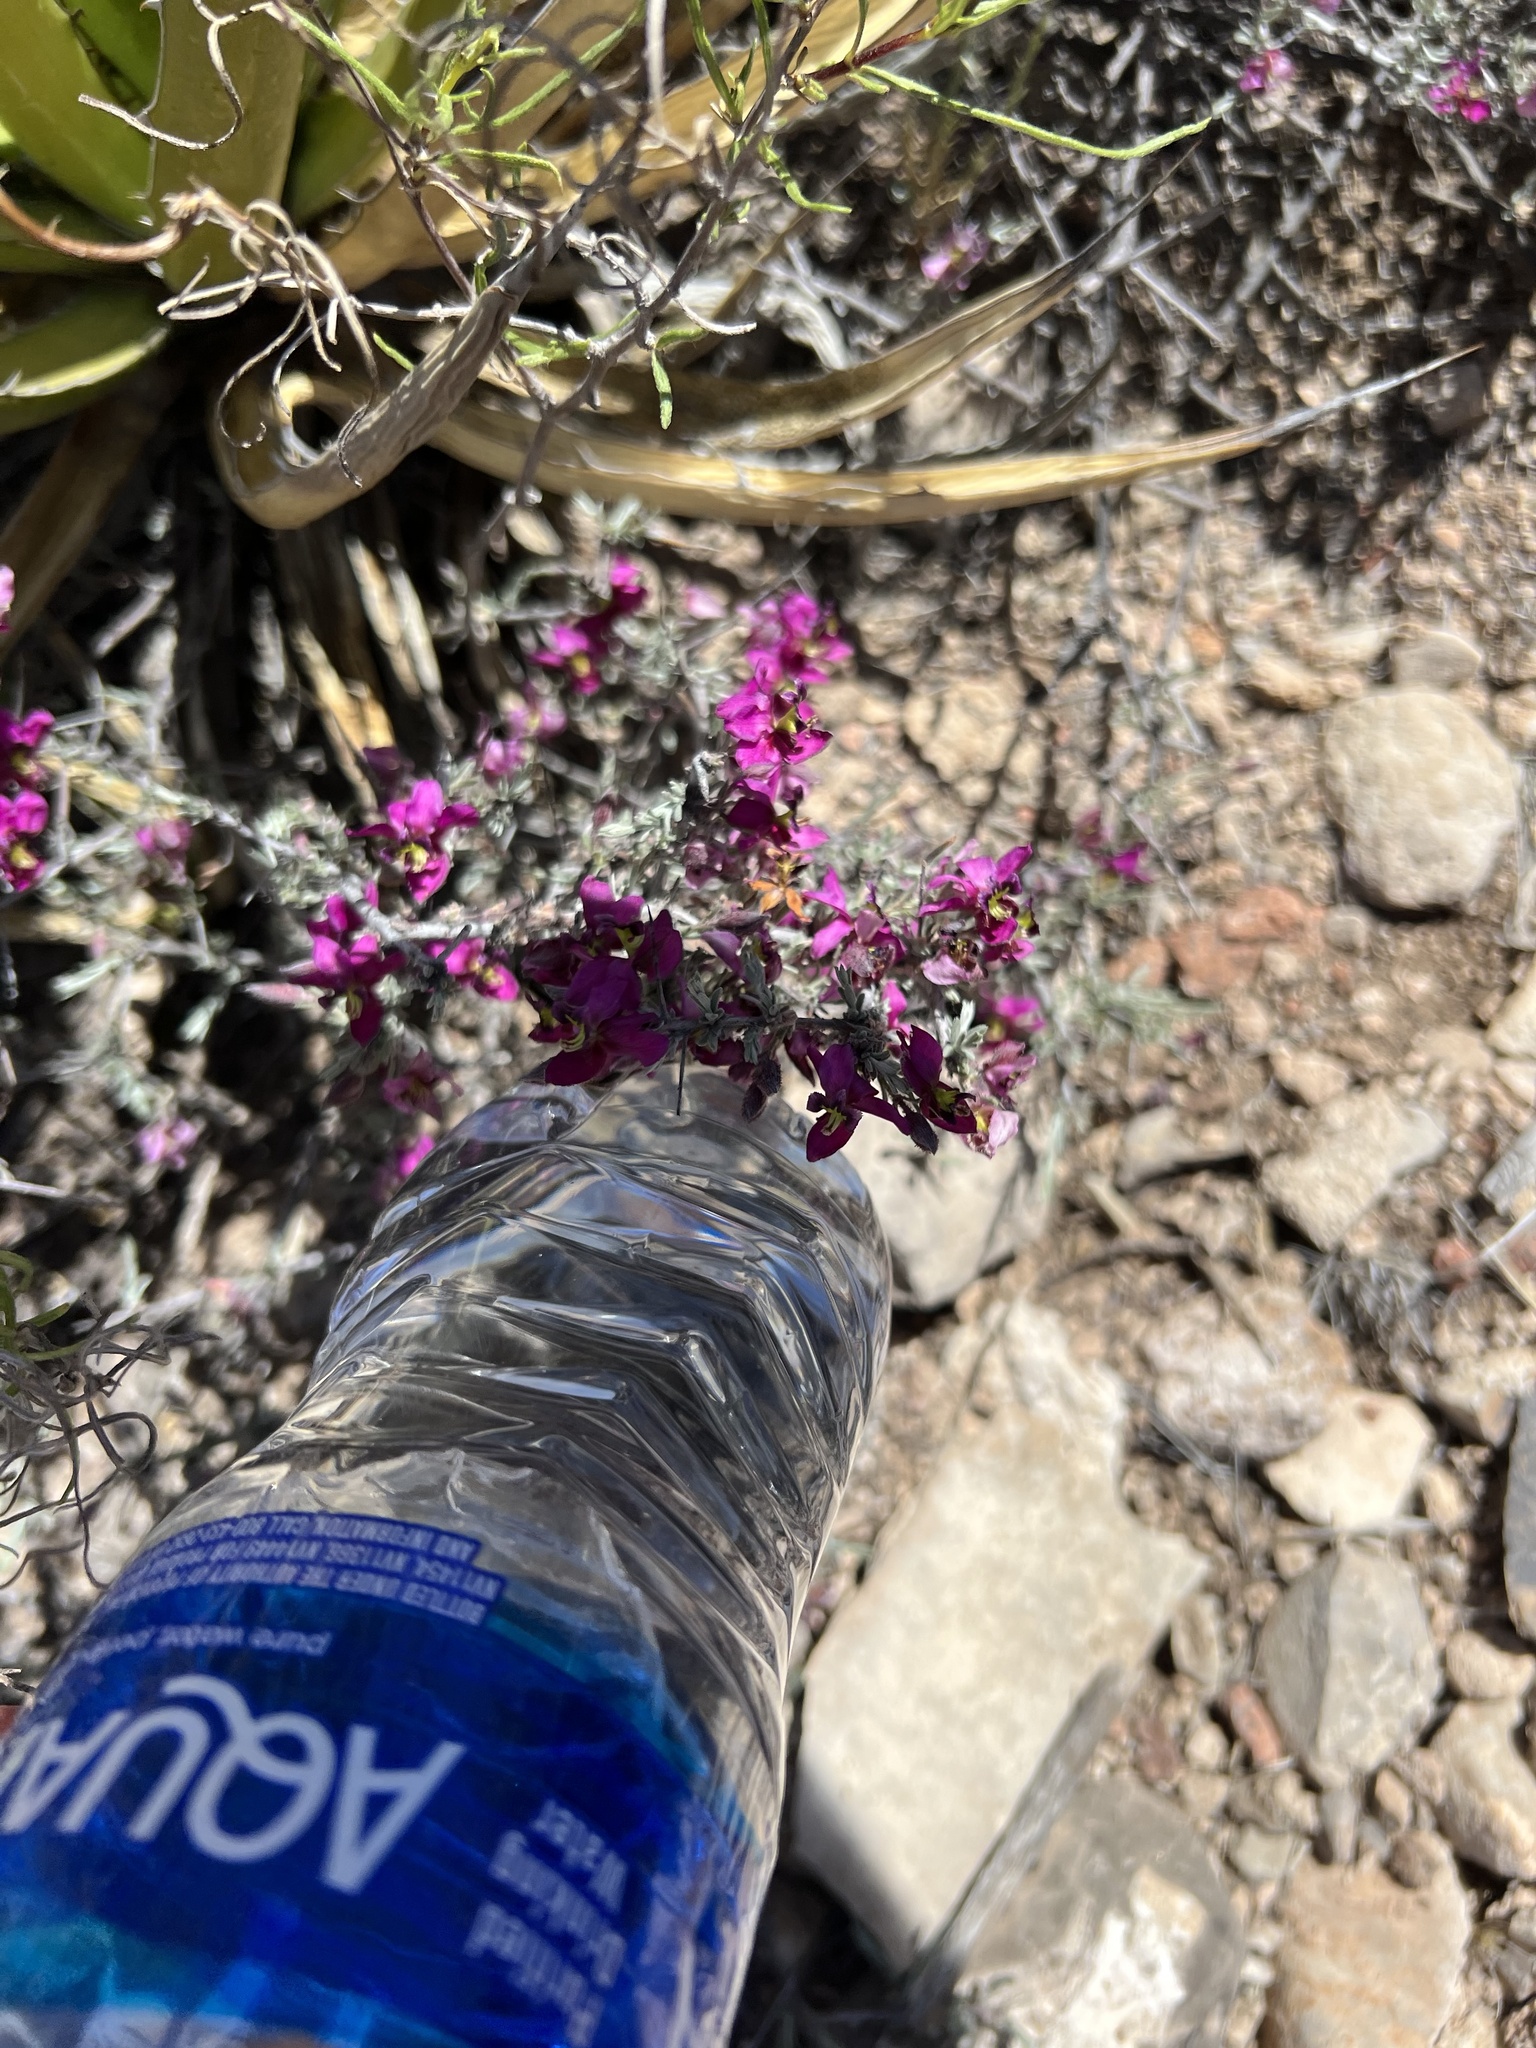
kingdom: Plantae
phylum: Tracheophyta
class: Magnoliopsida
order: Zygophyllales
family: Krameriaceae
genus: Krameria
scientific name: Krameria erecta
